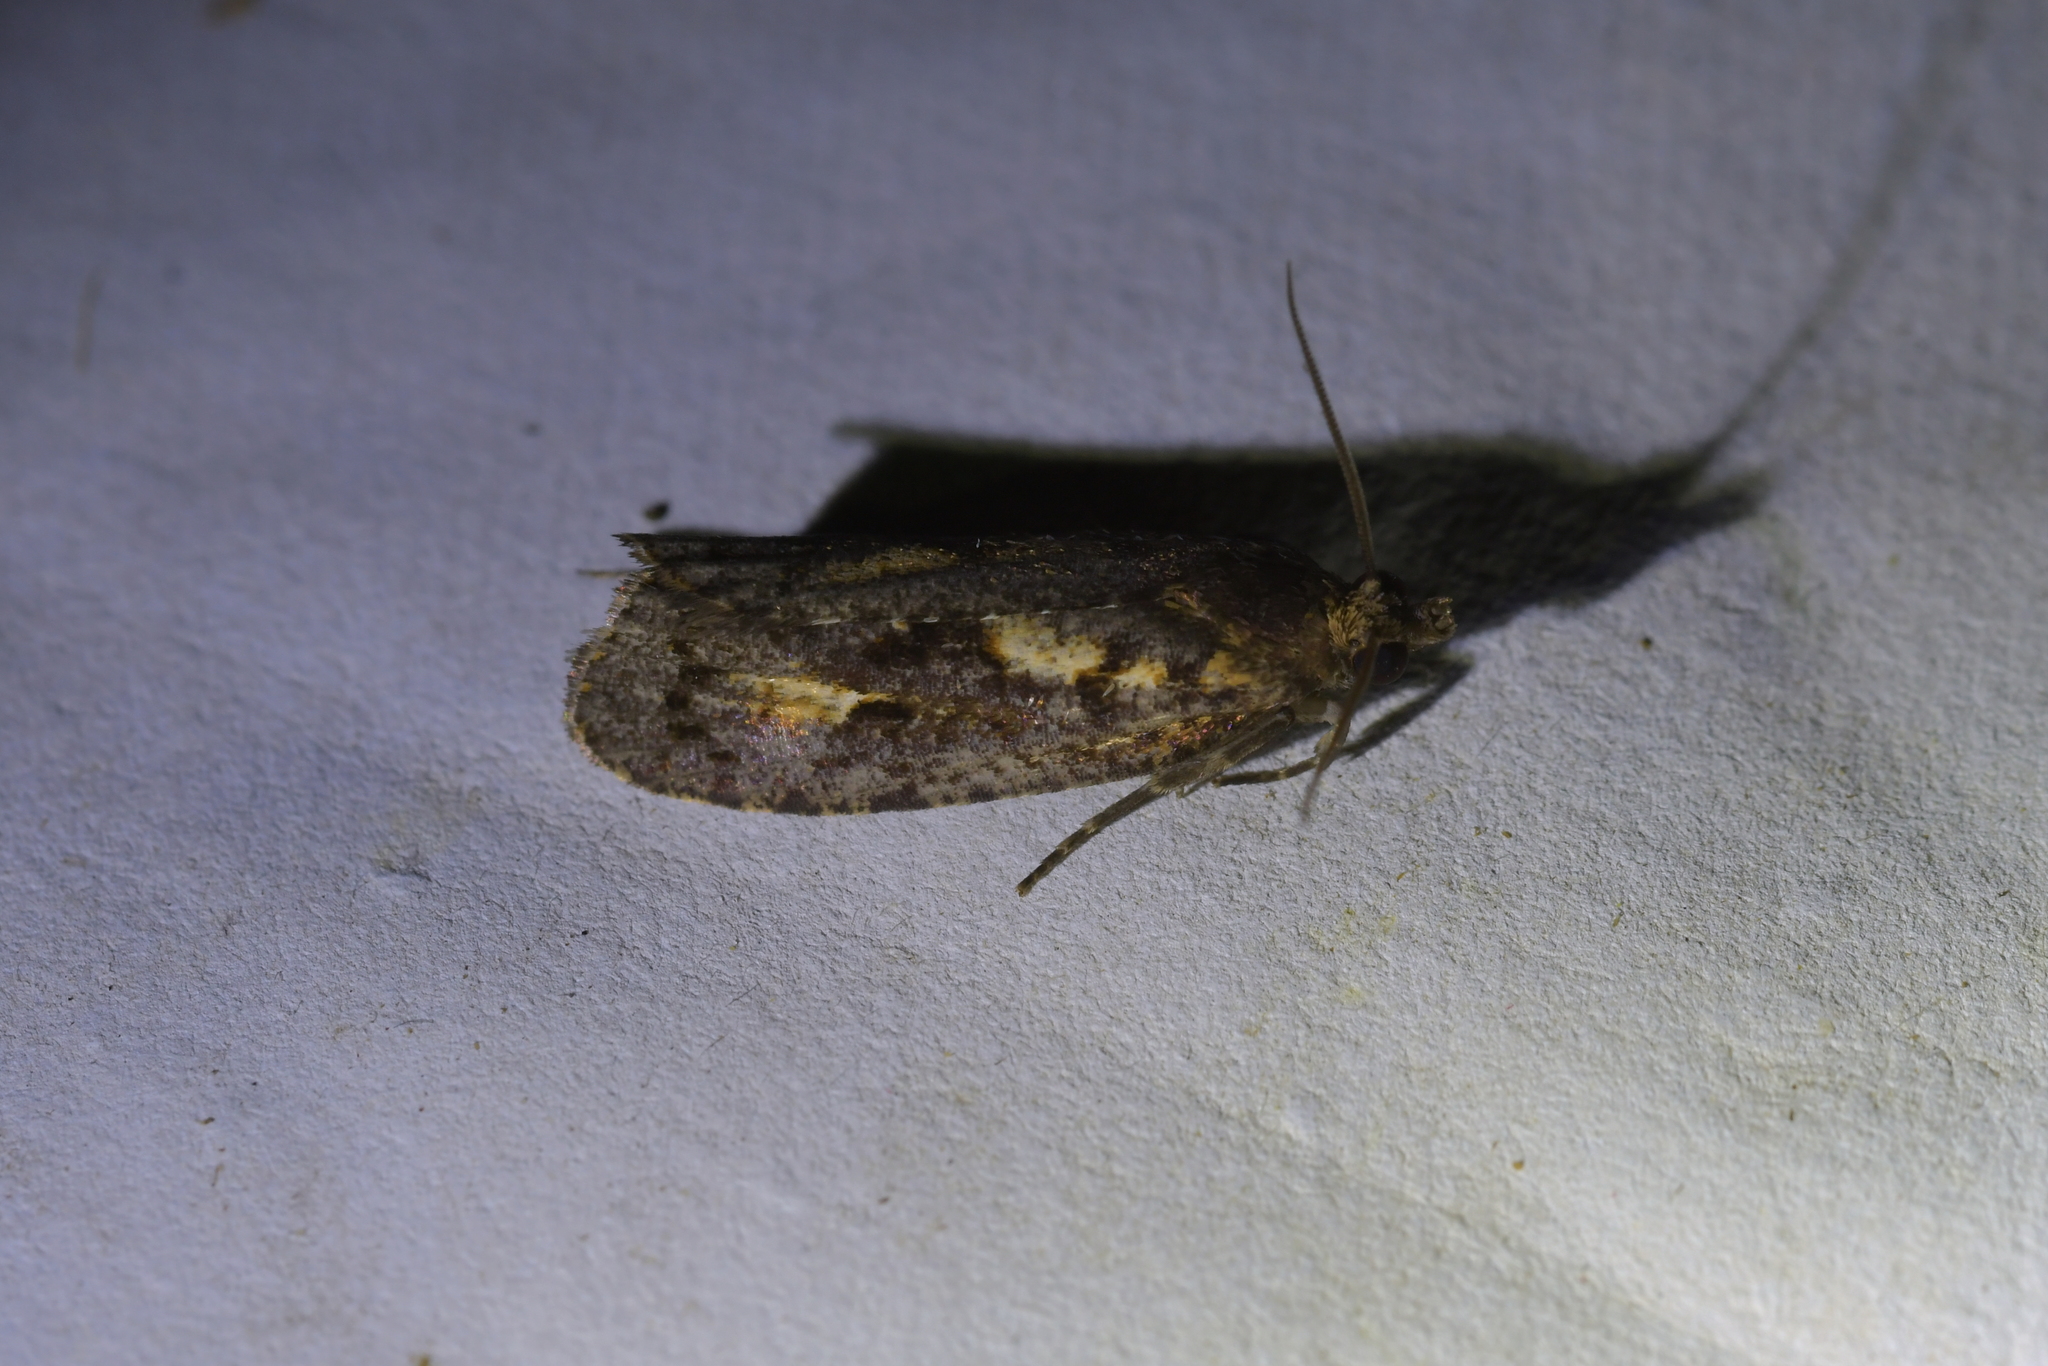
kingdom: Animalia
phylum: Arthropoda
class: Insecta
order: Lepidoptera
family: Tortricidae
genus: Cryptaspasma
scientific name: Cryptaspasma querula
